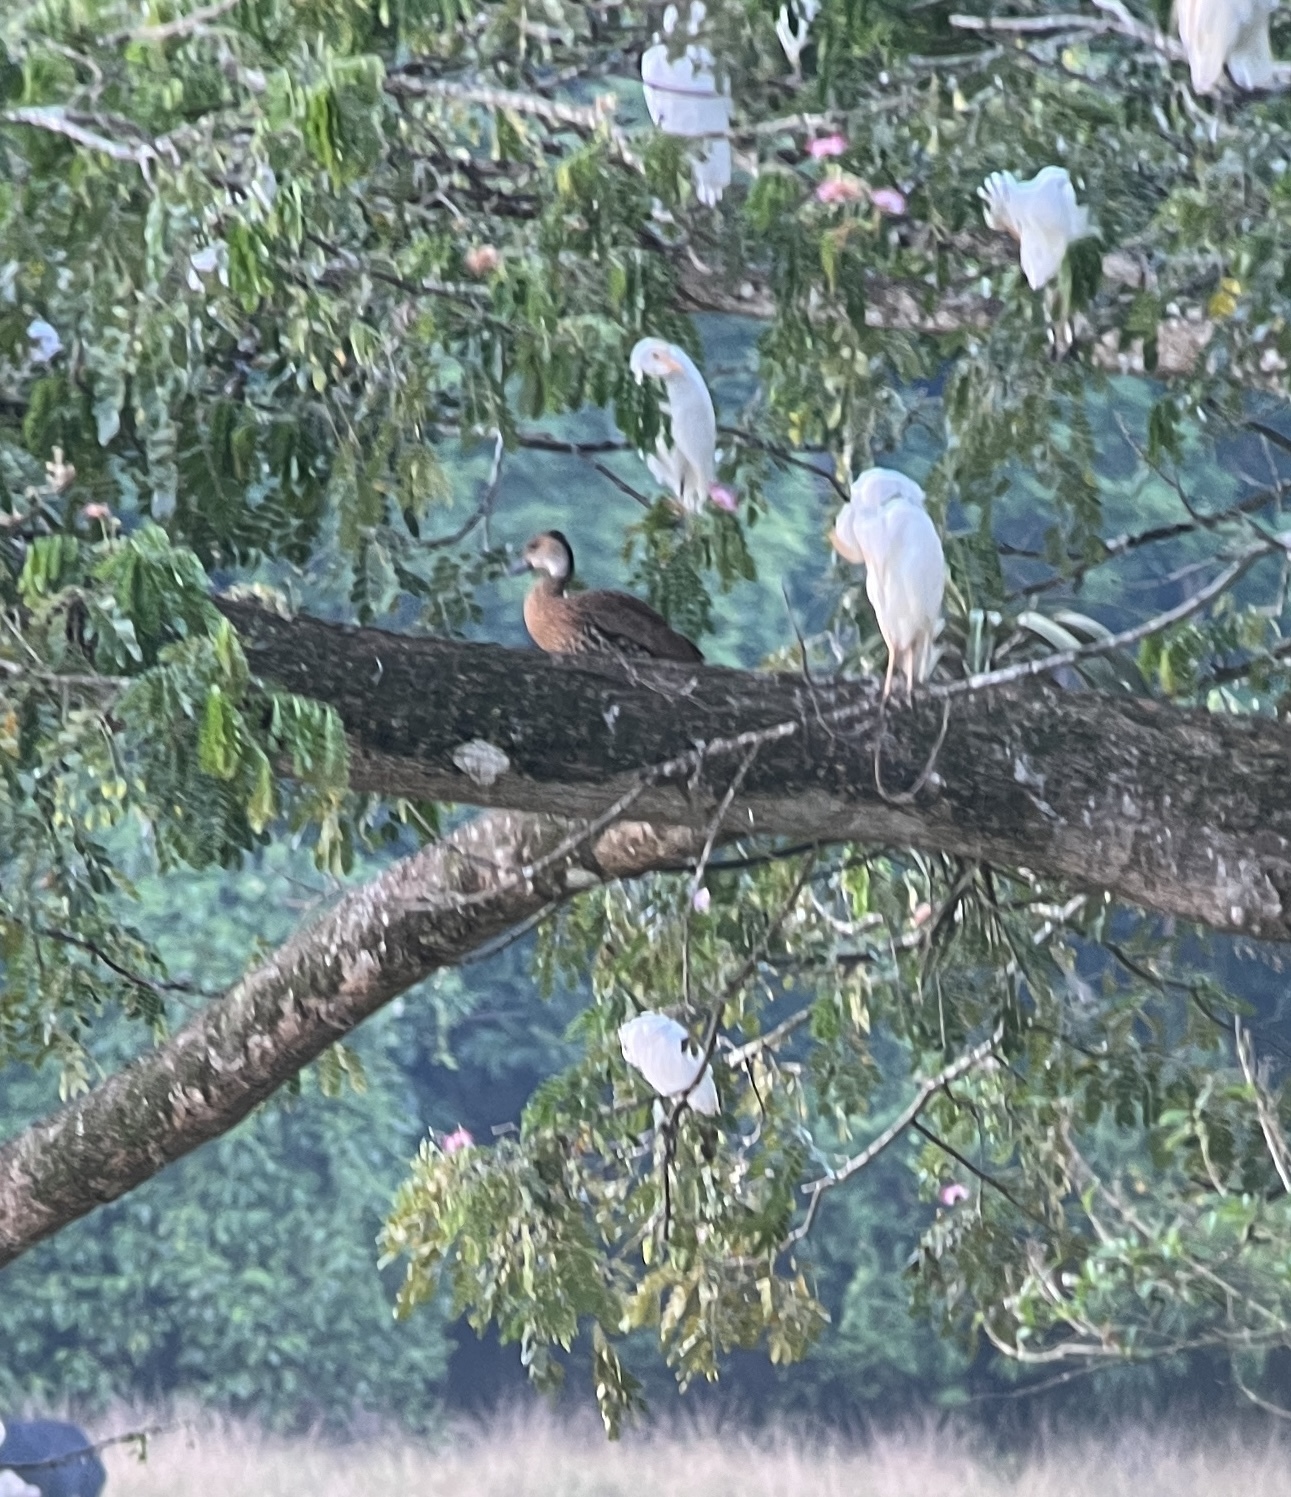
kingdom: Animalia
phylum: Chordata
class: Aves
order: Anseriformes
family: Anatidae
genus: Dendrocygna
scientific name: Dendrocygna arborea
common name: West indian whistling duck
